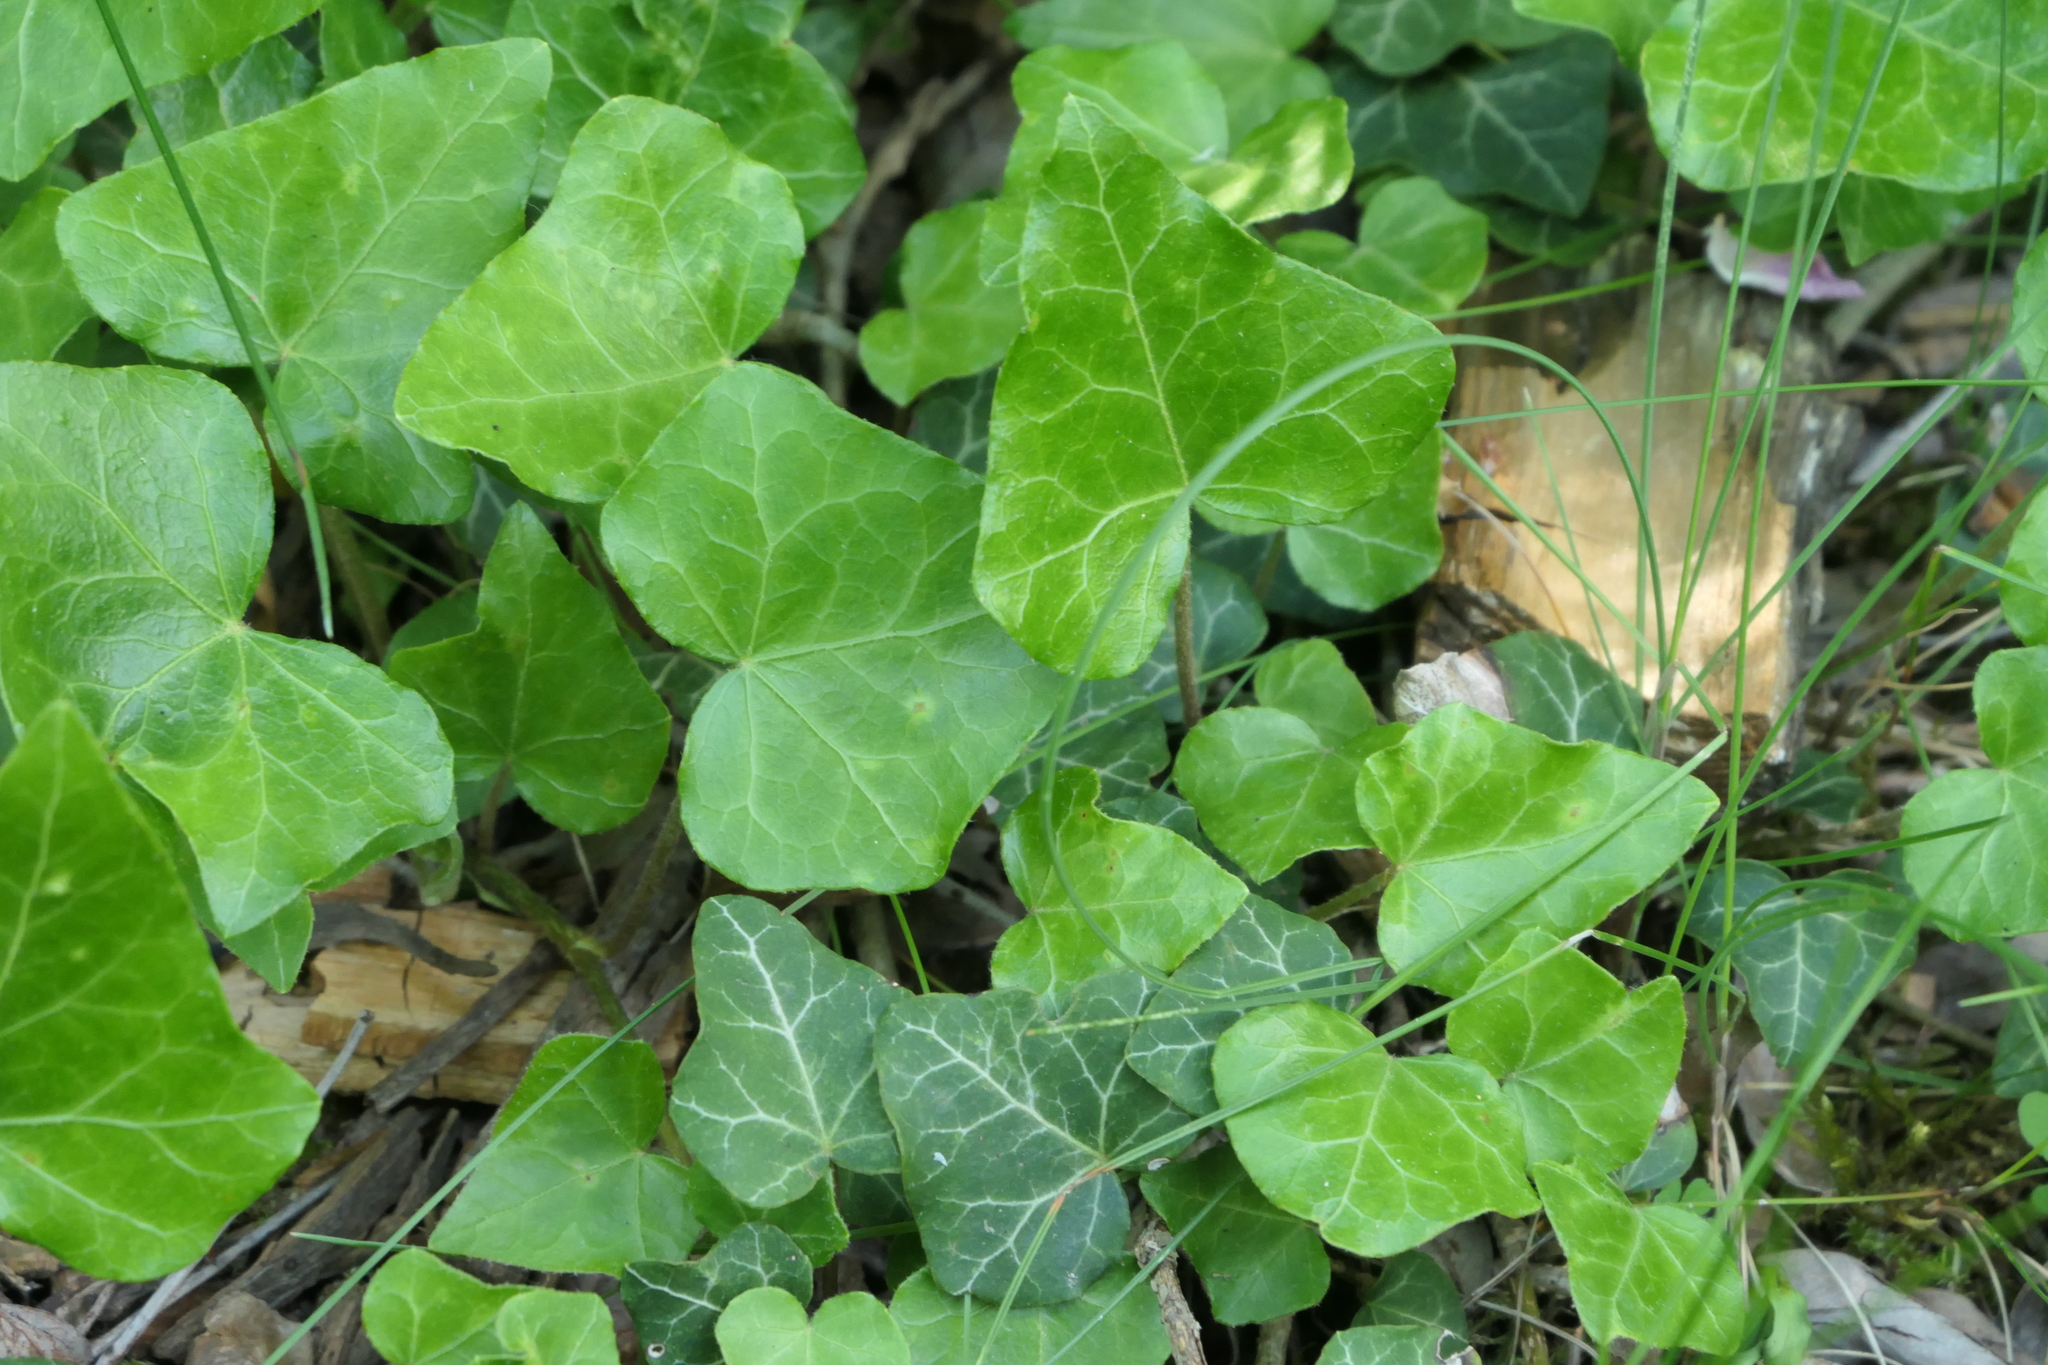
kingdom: Plantae
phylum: Tracheophyta
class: Magnoliopsida
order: Apiales
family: Araliaceae
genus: Hedera
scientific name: Hedera helix
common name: Ivy
